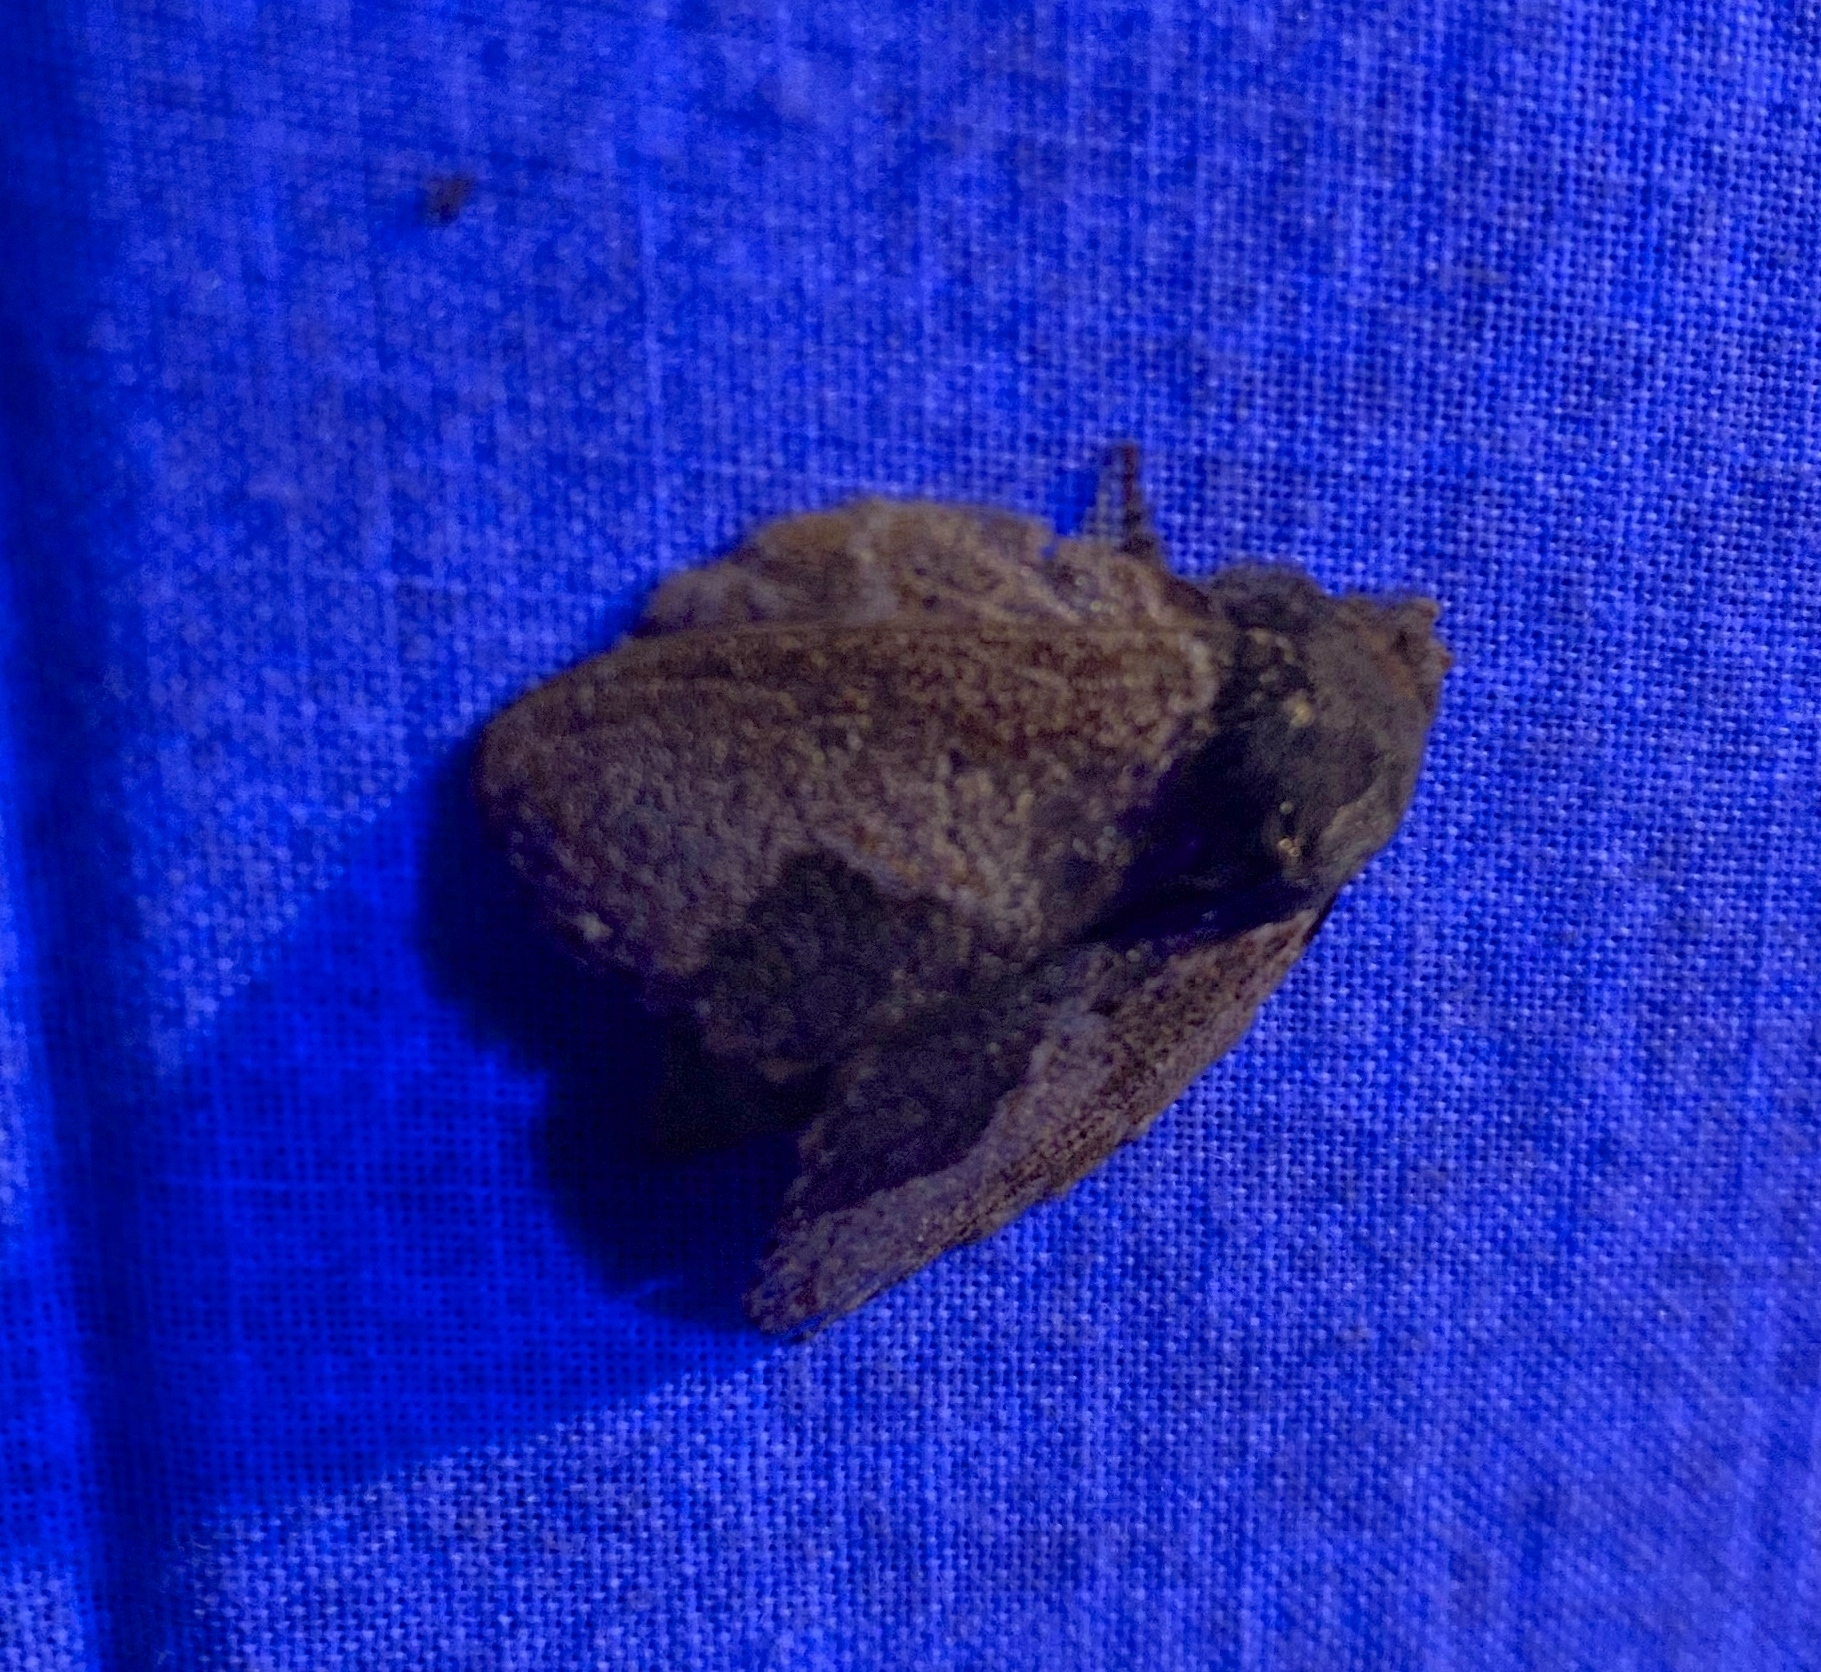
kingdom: Animalia
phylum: Arthropoda
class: Insecta
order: Lepidoptera
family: Lasiocampidae
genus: Euglyphis
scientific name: Euglyphis marna
